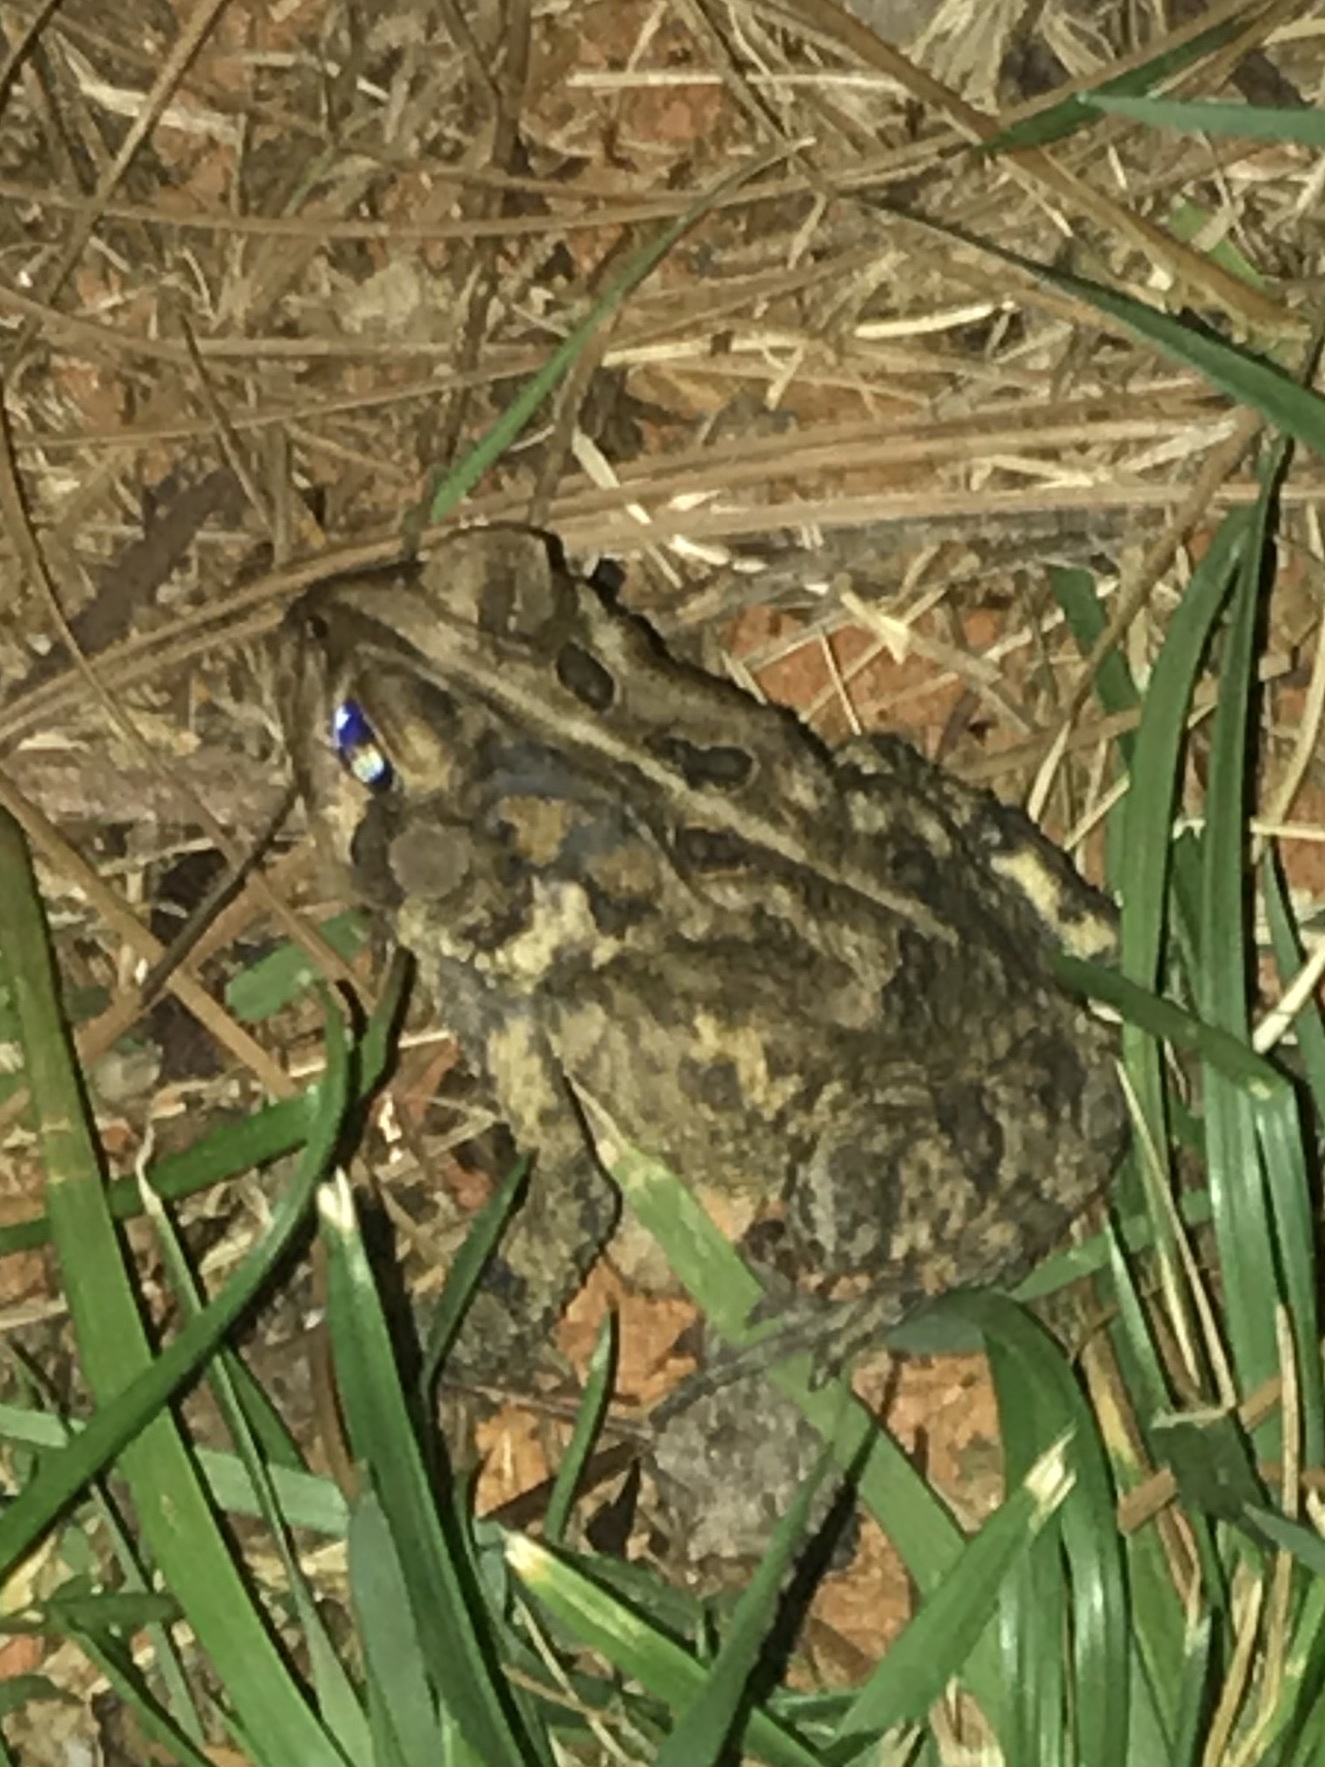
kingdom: Animalia
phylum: Chordata
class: Amphibia
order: Anura
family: Bufonidae
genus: Anaxyrus
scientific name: Anaxyrus fowleri
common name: Fowler's toad
